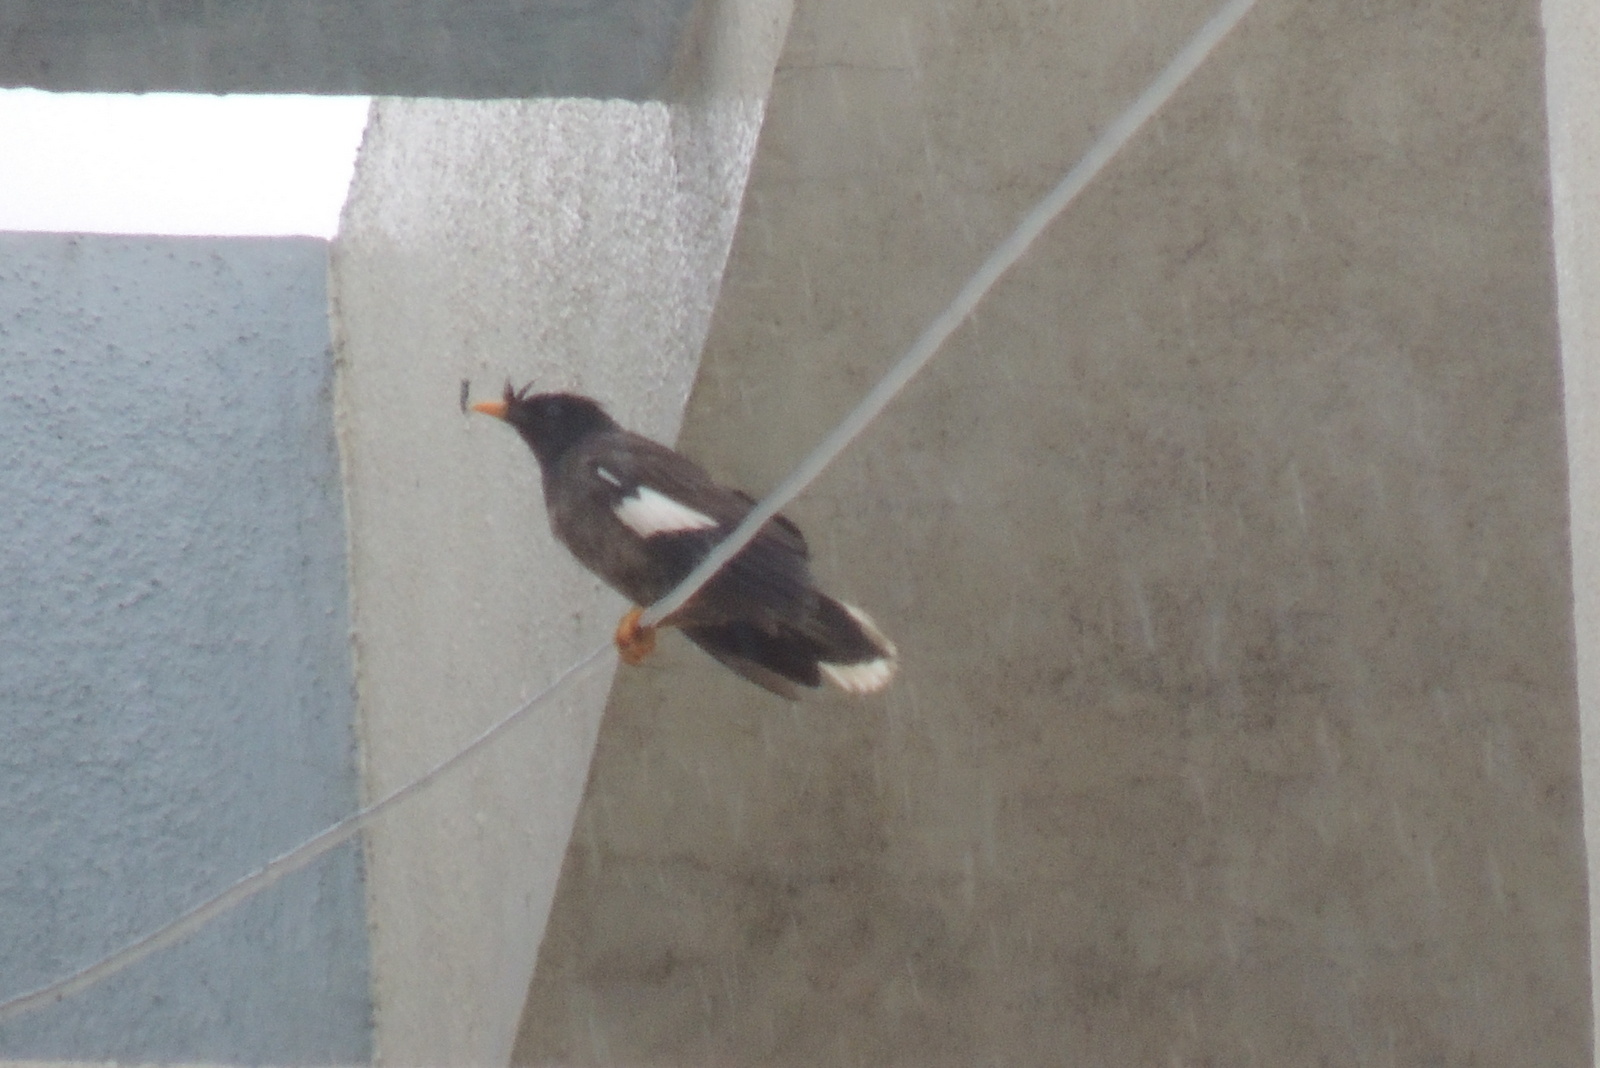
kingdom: Animalia
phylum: Chordata
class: Aves
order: Passeriformes
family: Sturnidae
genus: Acridotheres
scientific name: Acridotheres fuscus
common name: Jungle myna
